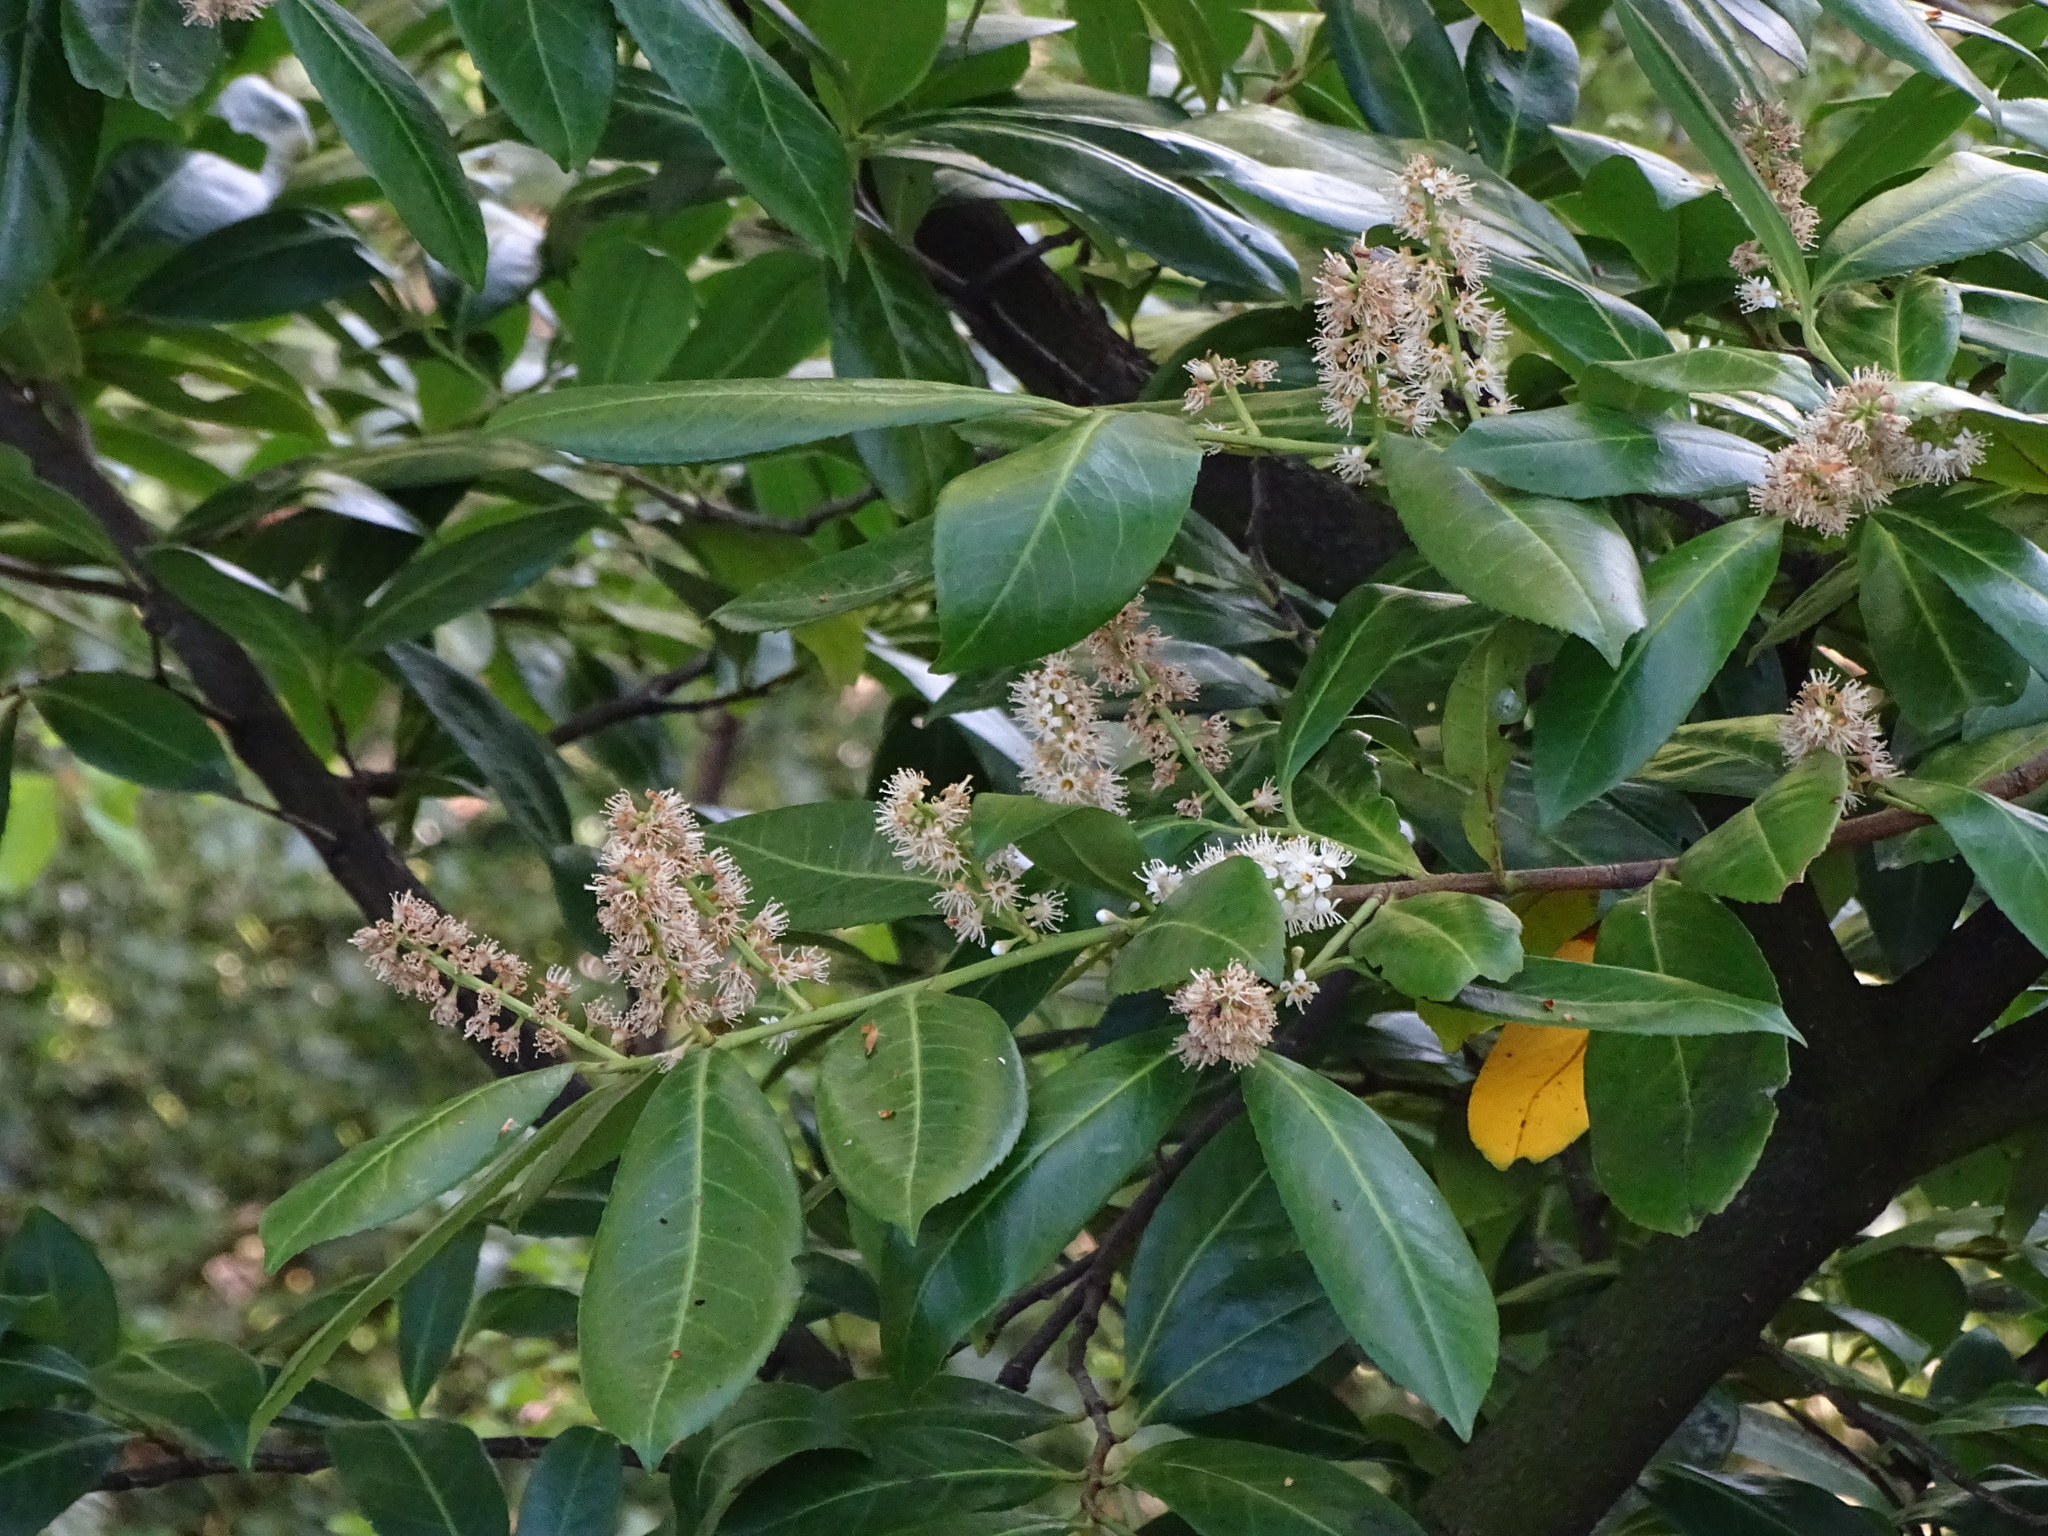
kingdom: Plantae
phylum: Tracheophyta
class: Magnoliopsida
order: Rosales
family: Rosaceae
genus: Prunus
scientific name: Prunus laurocerasus
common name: Cherry laurel
